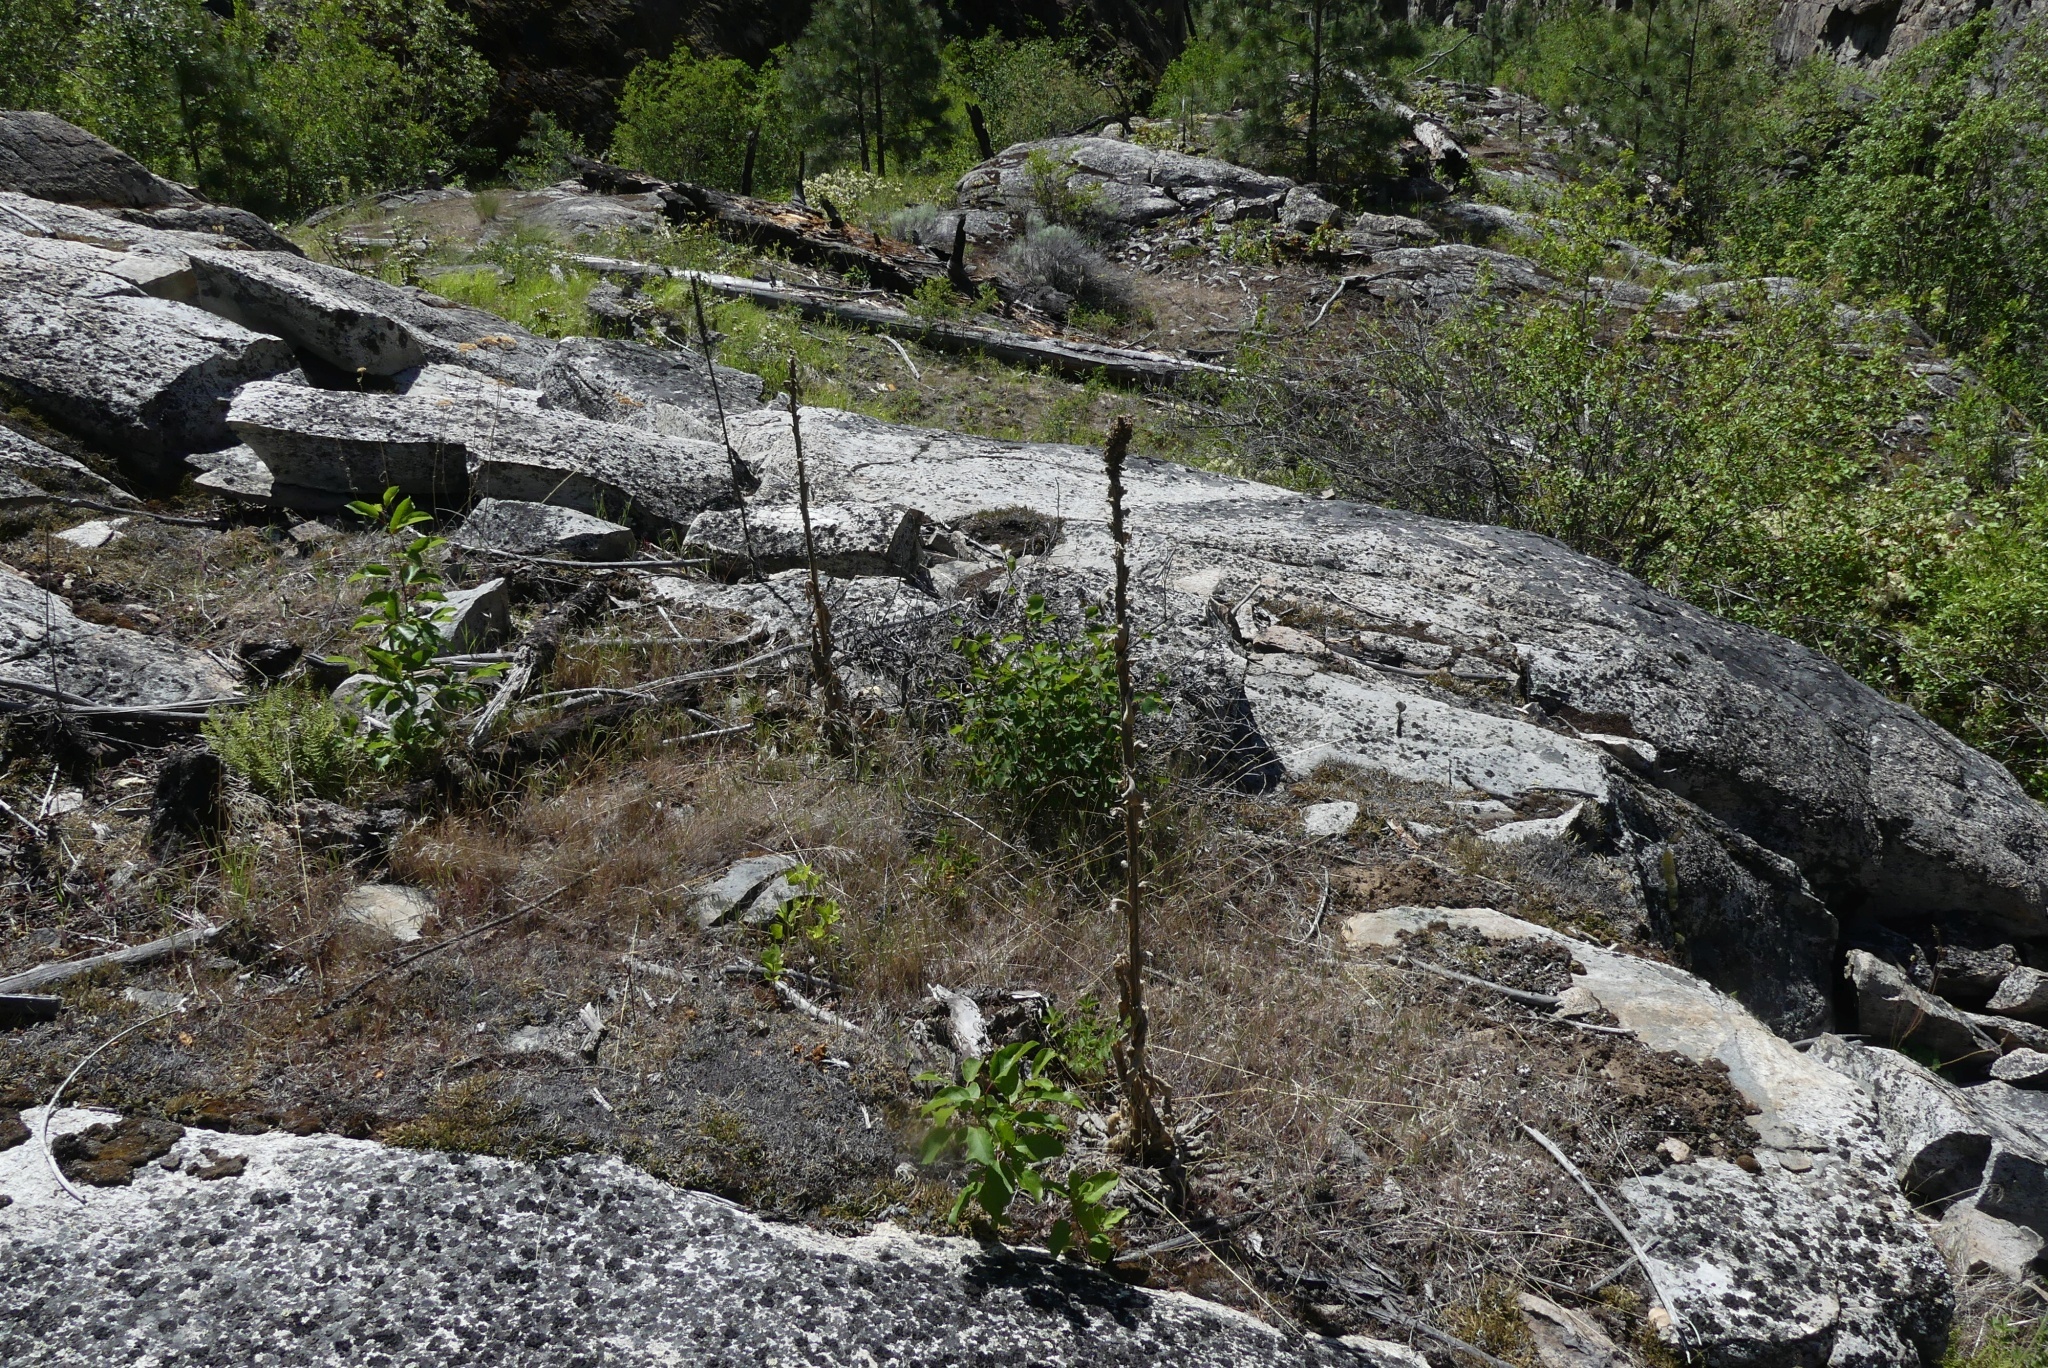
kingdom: Plantae
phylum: Tracheophyta
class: Magnoliopsida
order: Lamiales
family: Scrophulariaceae
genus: Verbascum
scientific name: Verbascum thapsus
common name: Common mullein
